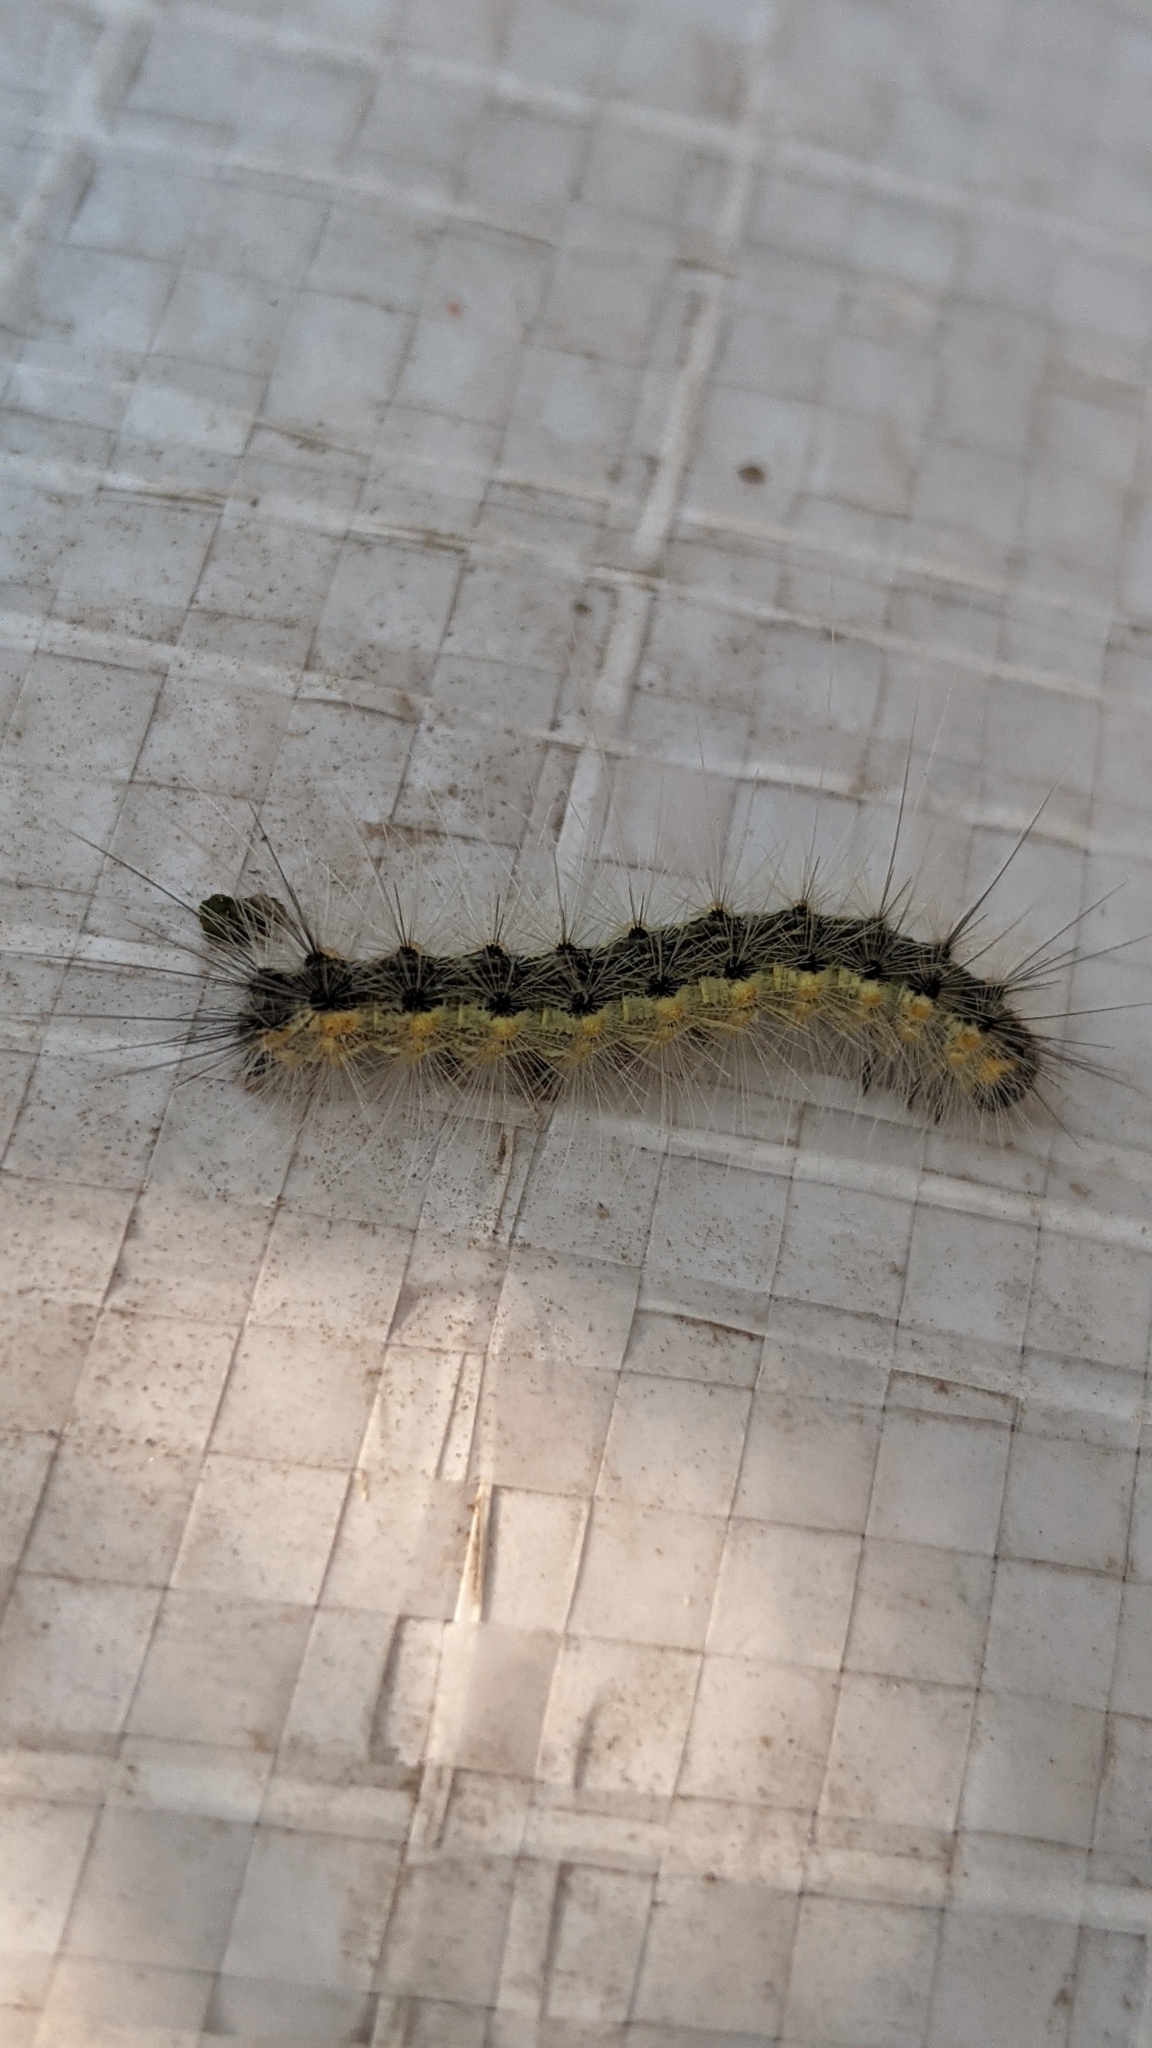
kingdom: Animalia
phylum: Arthropoda
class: Insecta
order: Lepidoptera
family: Erebidae
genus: Hyphantria
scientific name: Hyphantria cunea
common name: American white moth
